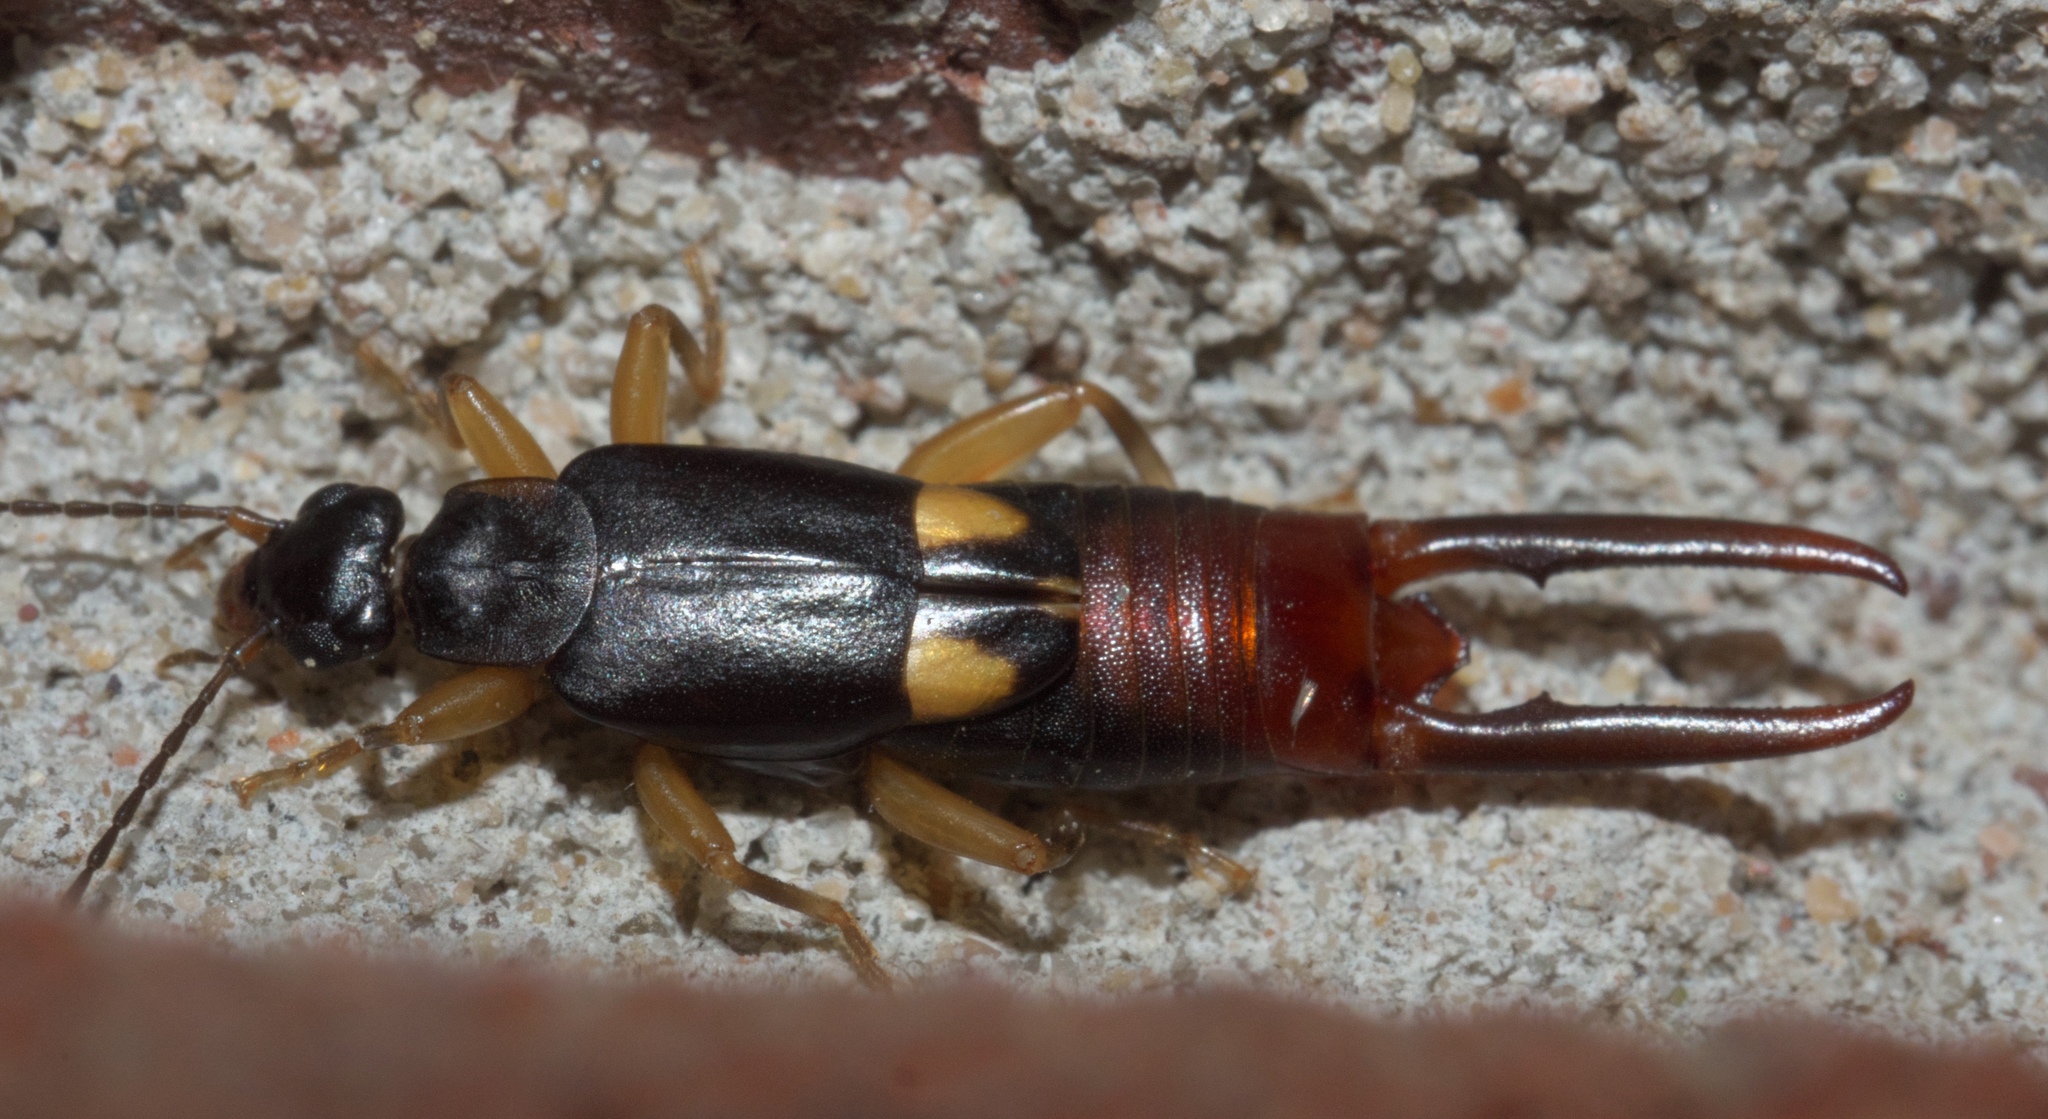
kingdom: Animalia
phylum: Arthropoda
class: Insecta
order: Dermaptera
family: Spongiphoridae
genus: Vostox
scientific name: Vostox brunneipennis
